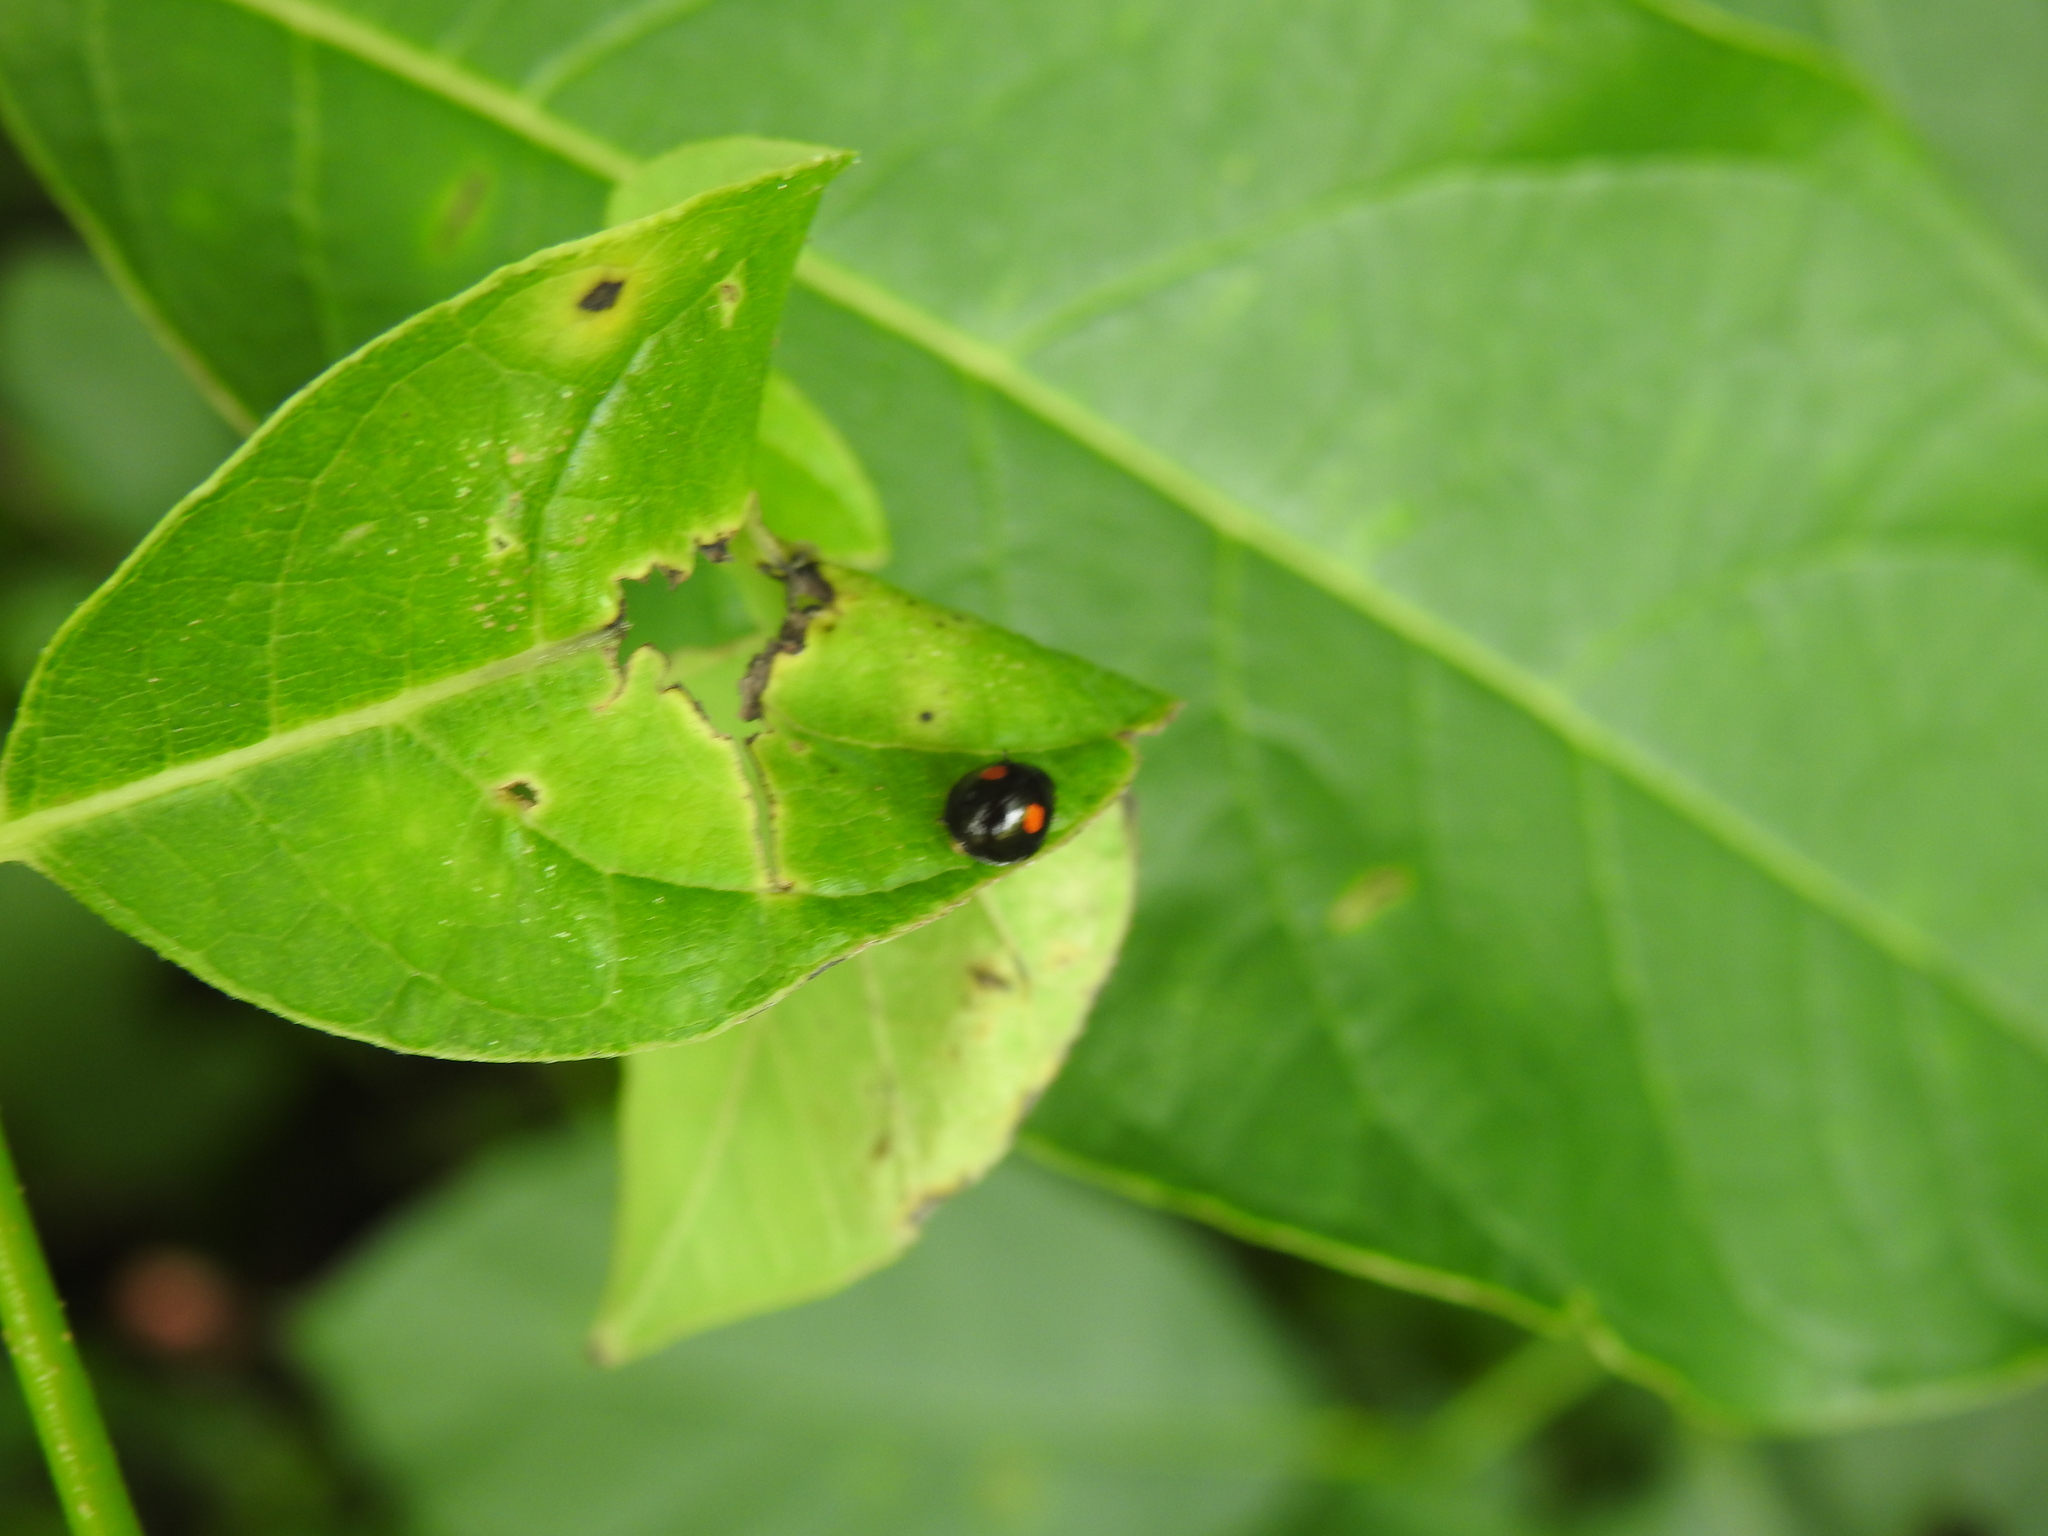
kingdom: Animalia
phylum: Arthropoda
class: Insecta
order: Coleoptera
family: Coccinellidae
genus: Chilocorus
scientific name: Chilocorus stigma
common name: Twicestabbed lady beetle
